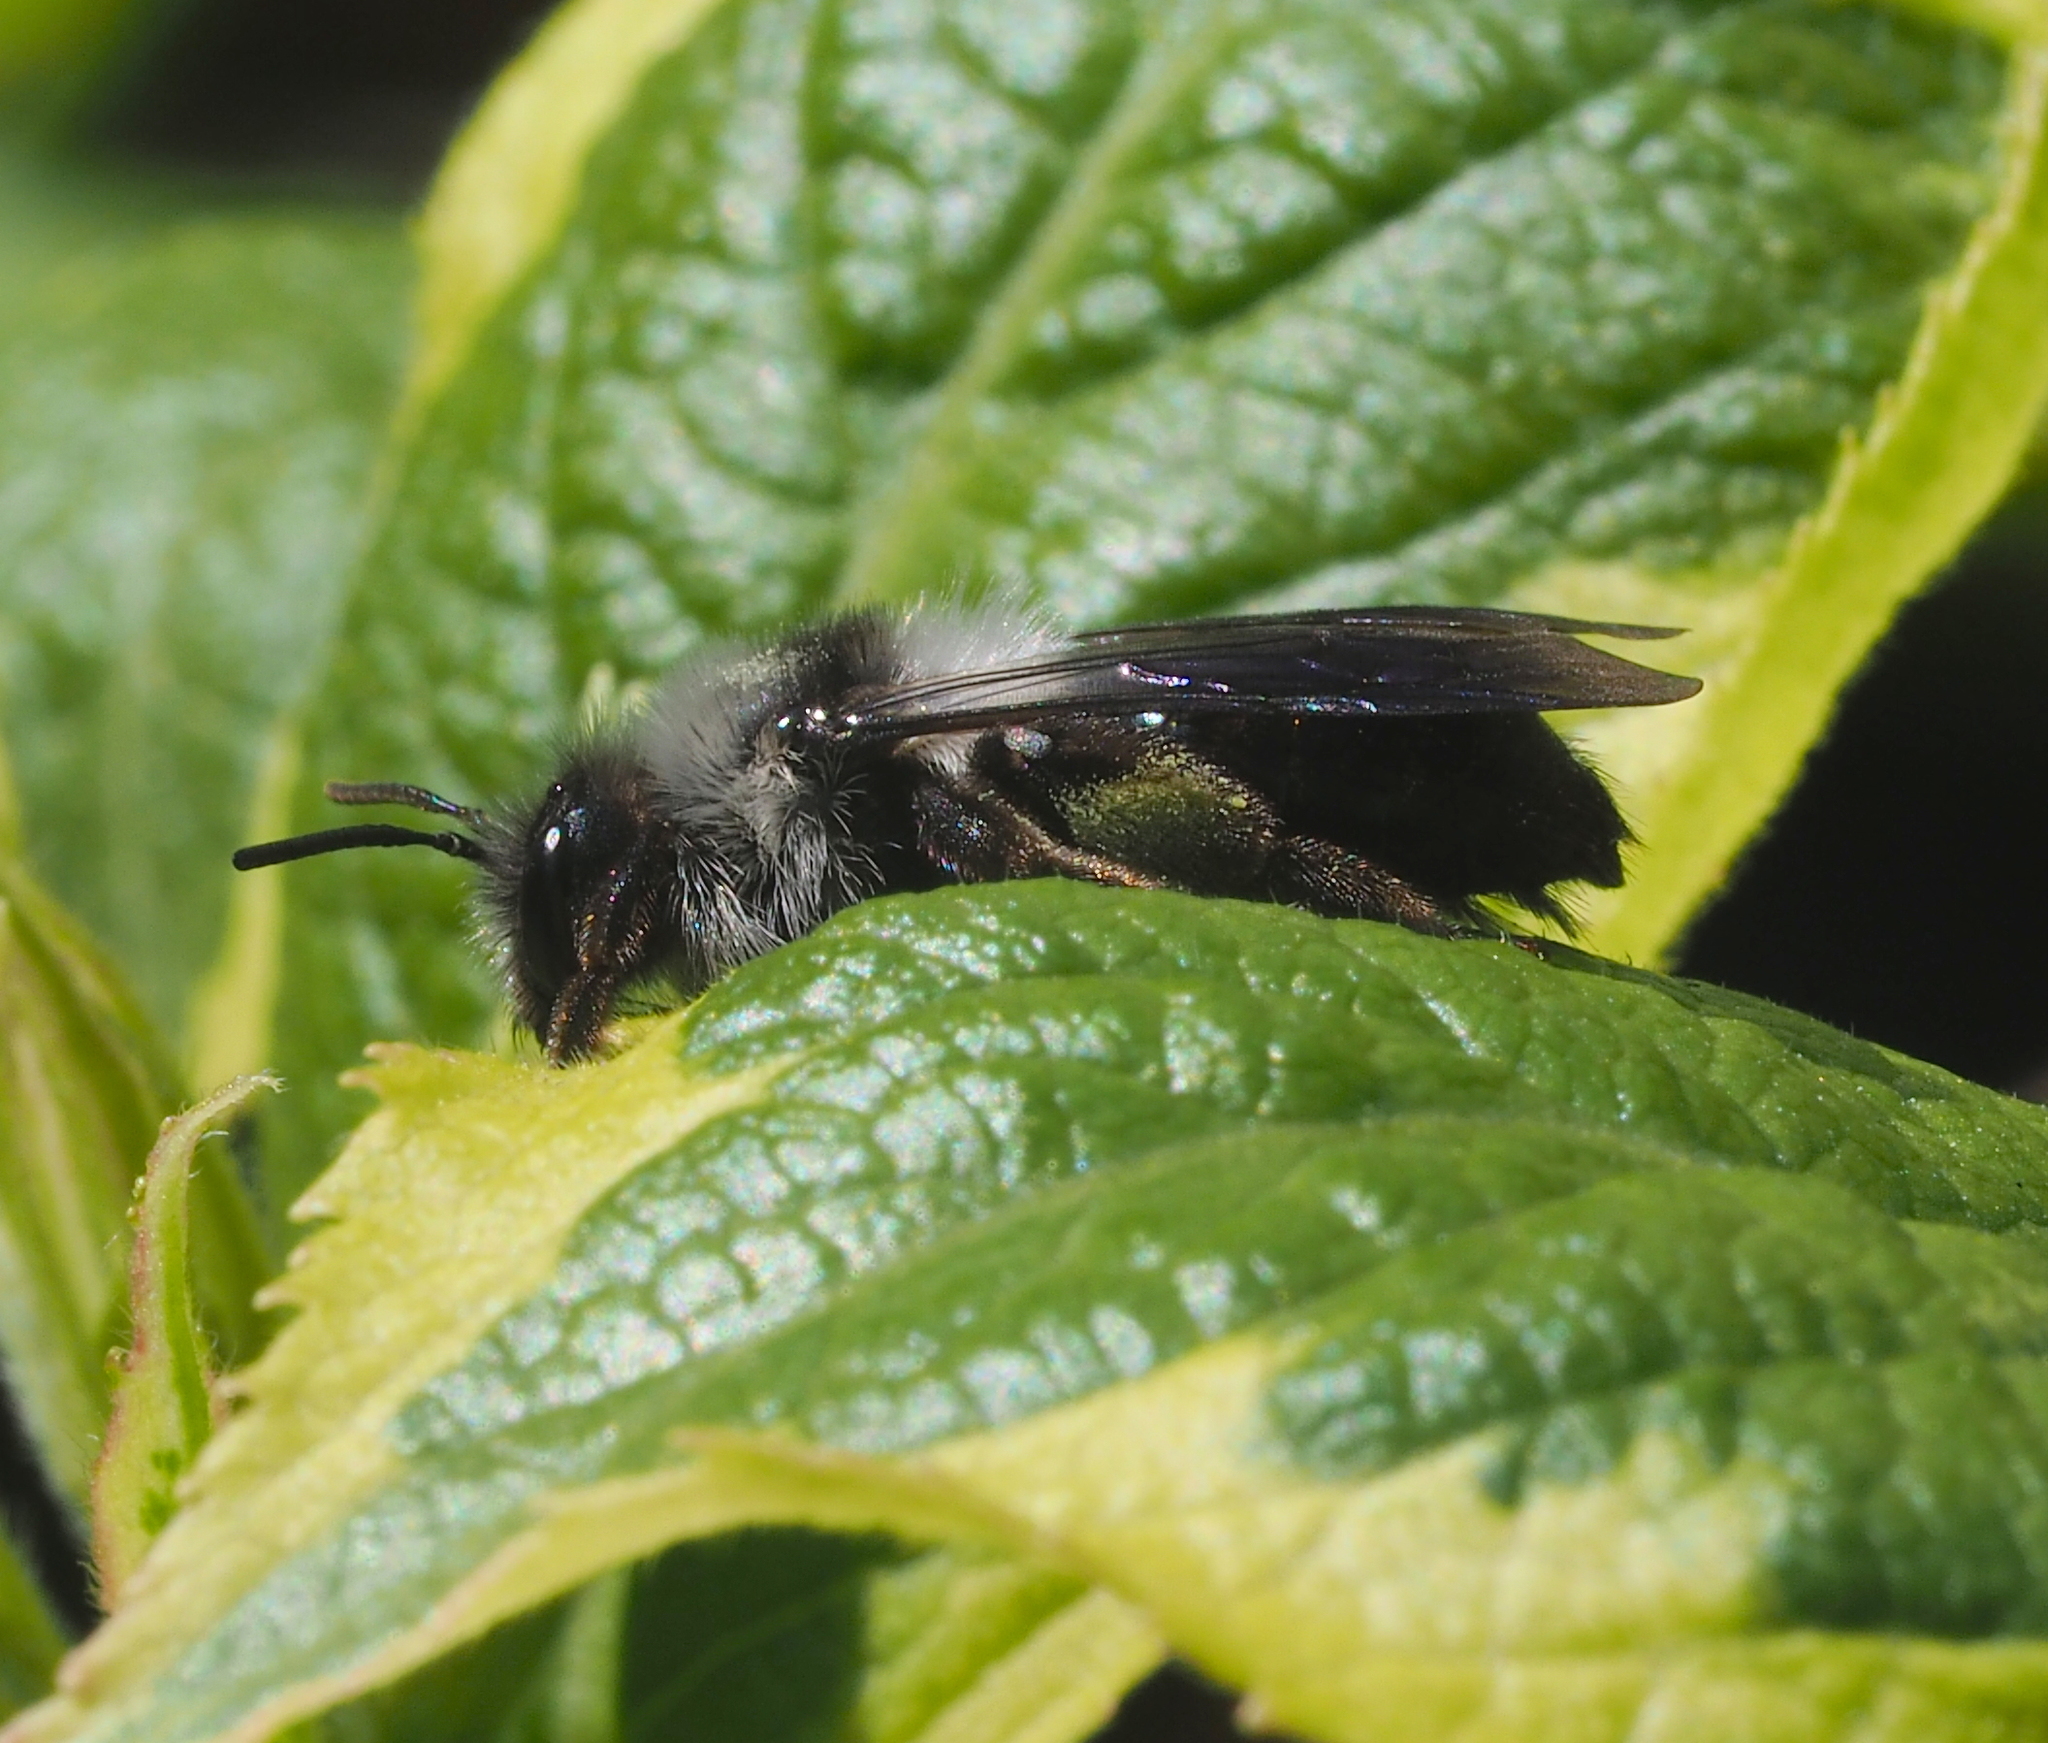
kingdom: Animalia
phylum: Arthropoda
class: Insecta
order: Hymenoptera
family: Andrenidae
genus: Andrena
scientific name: Andrena cineraria
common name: Ashy mining bee
